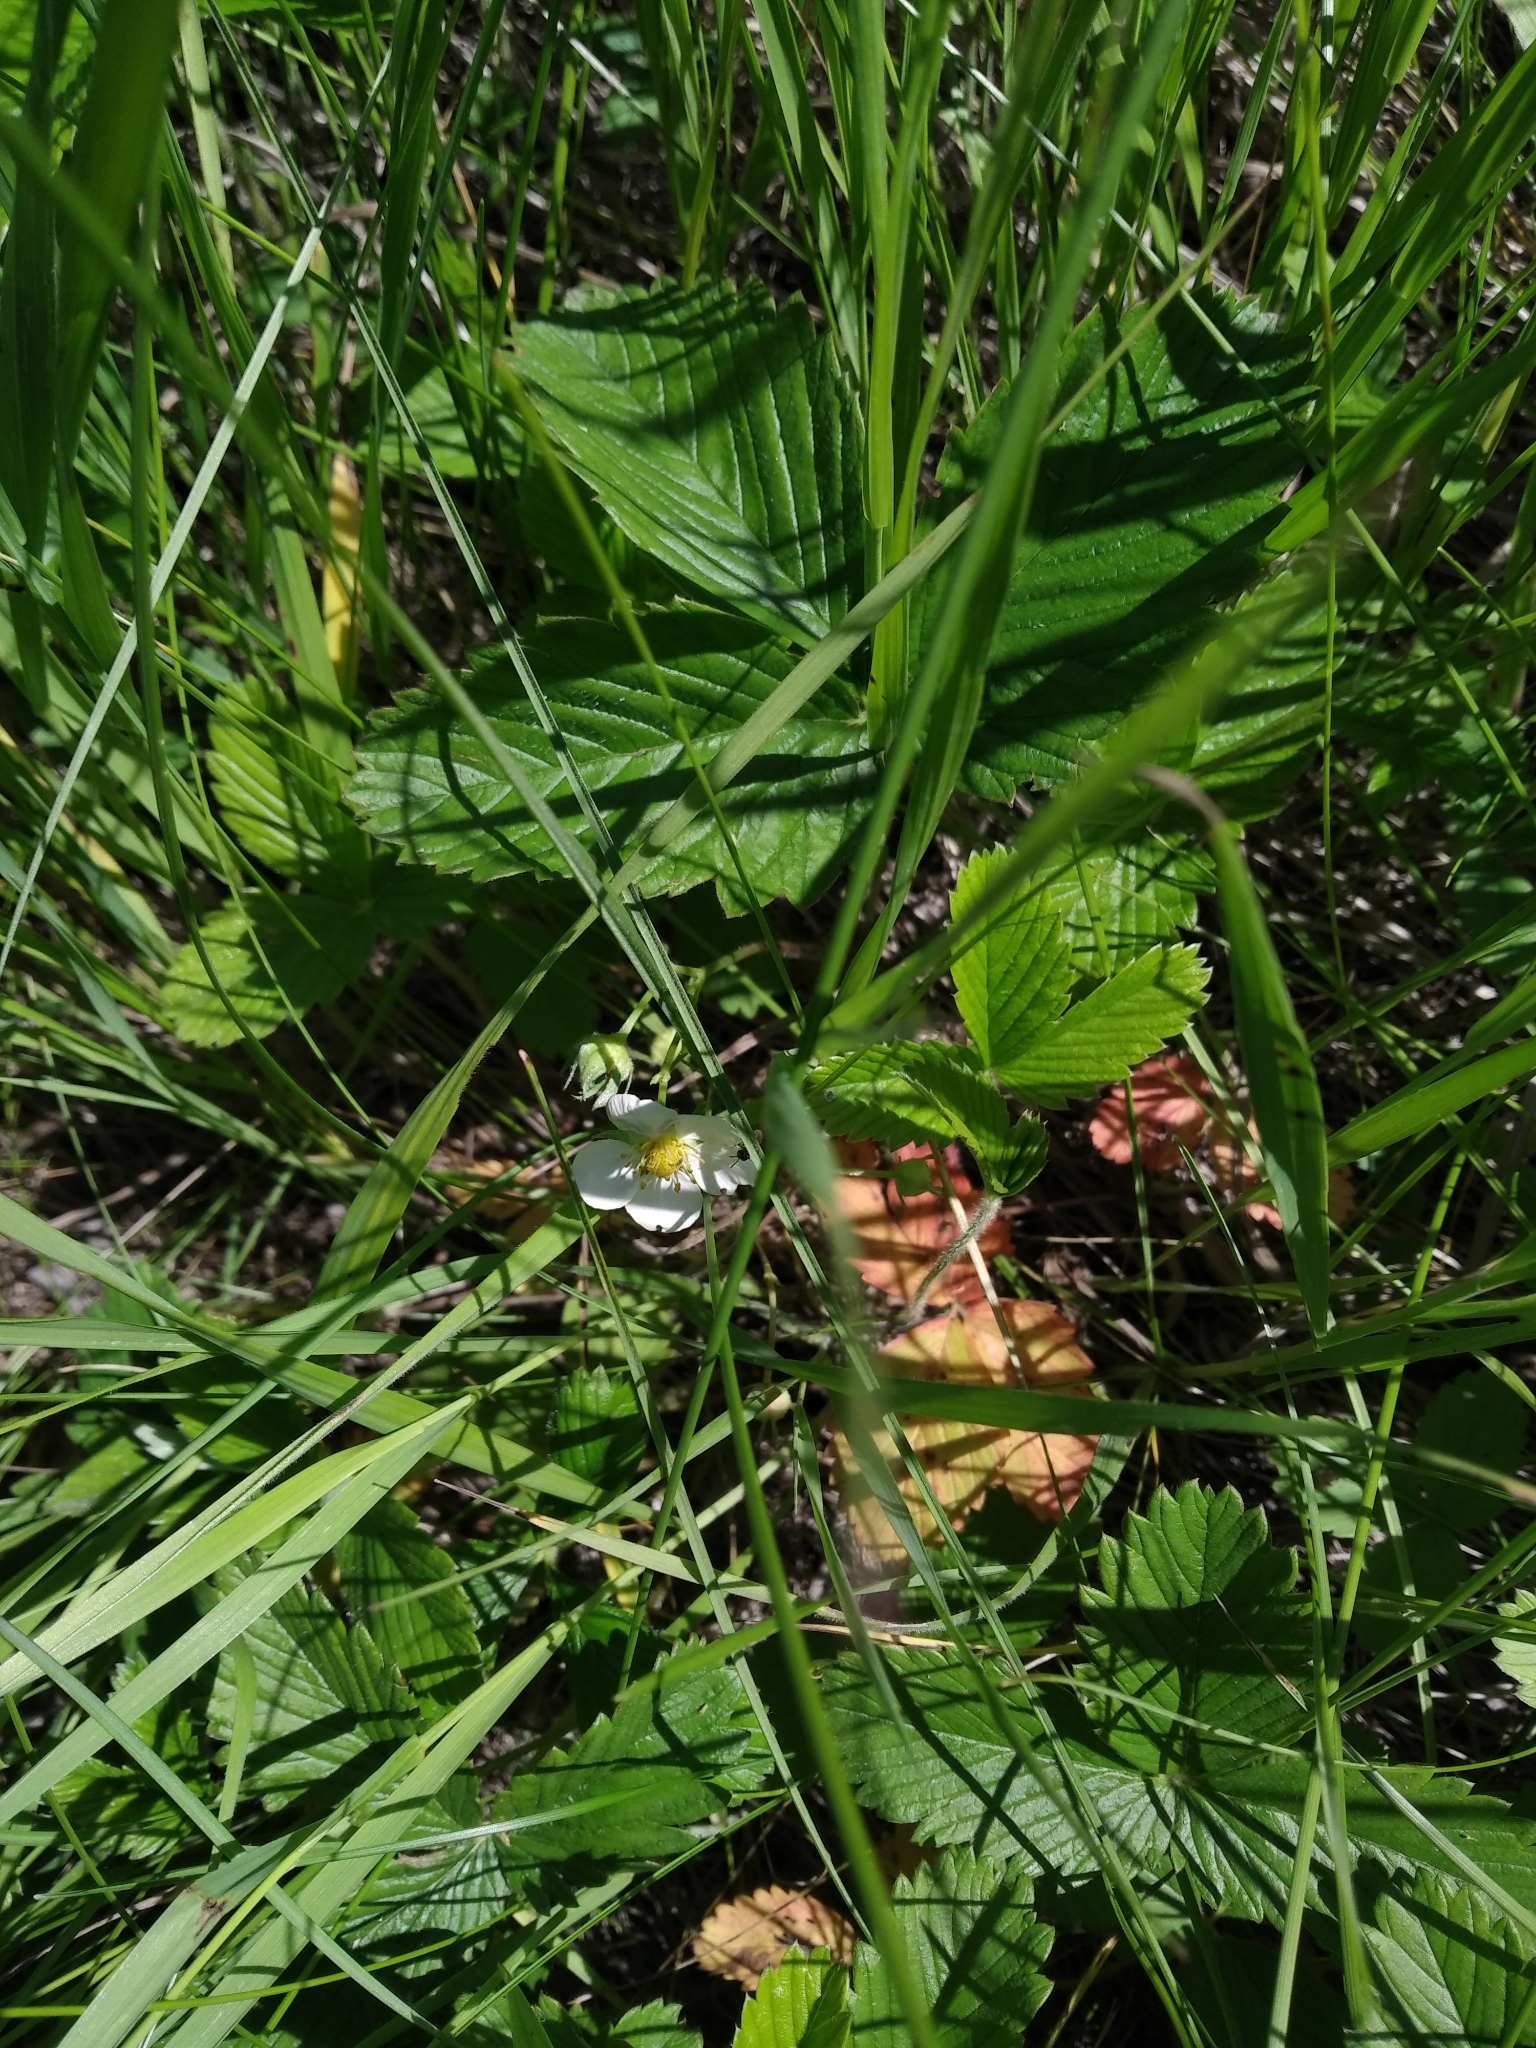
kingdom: Plantae
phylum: Tracheophyta
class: Magnoliopsida
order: Rosales
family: Rosaceae
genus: Fragaria
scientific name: Fragaria viridis
